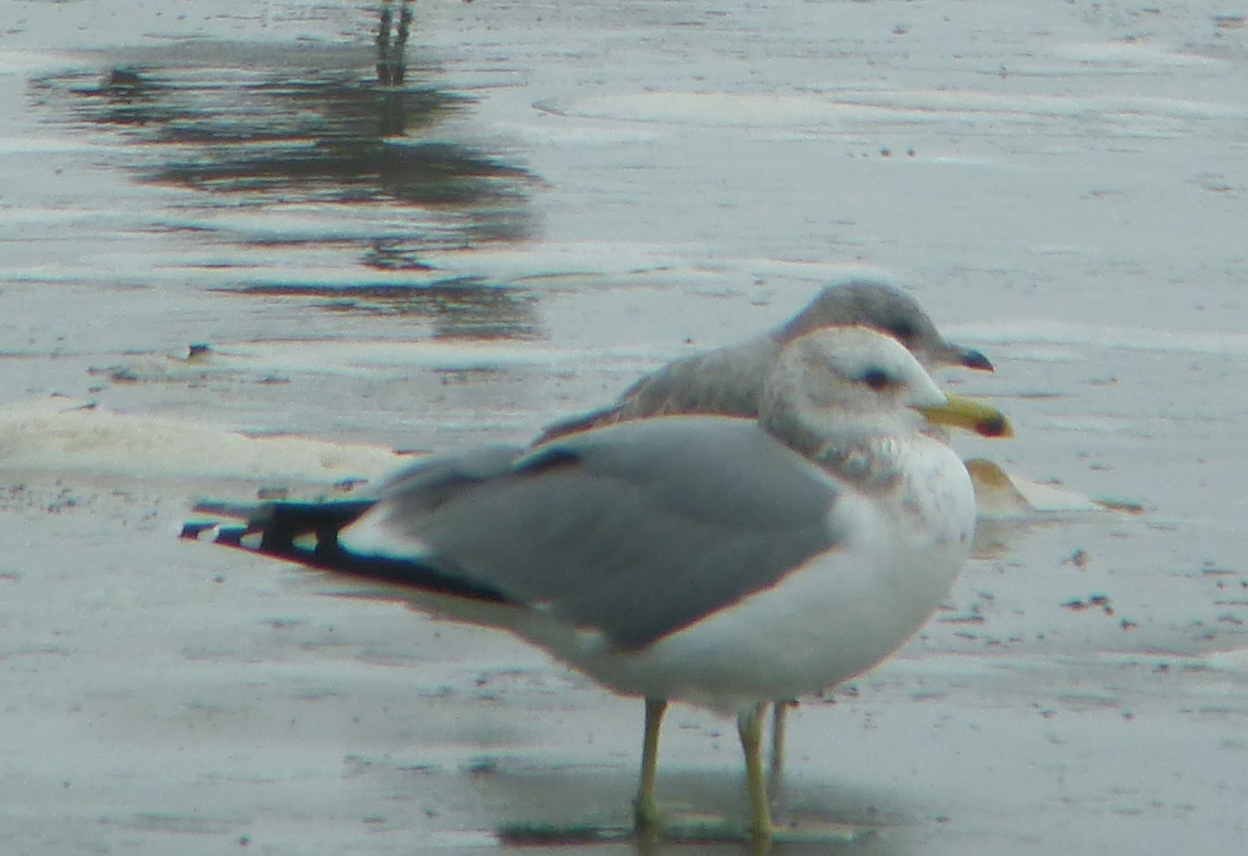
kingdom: Animalia
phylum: Chordata
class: Aves
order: Charadriiformes
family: Laridae
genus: Larus
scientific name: Larus californicus
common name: California gull
